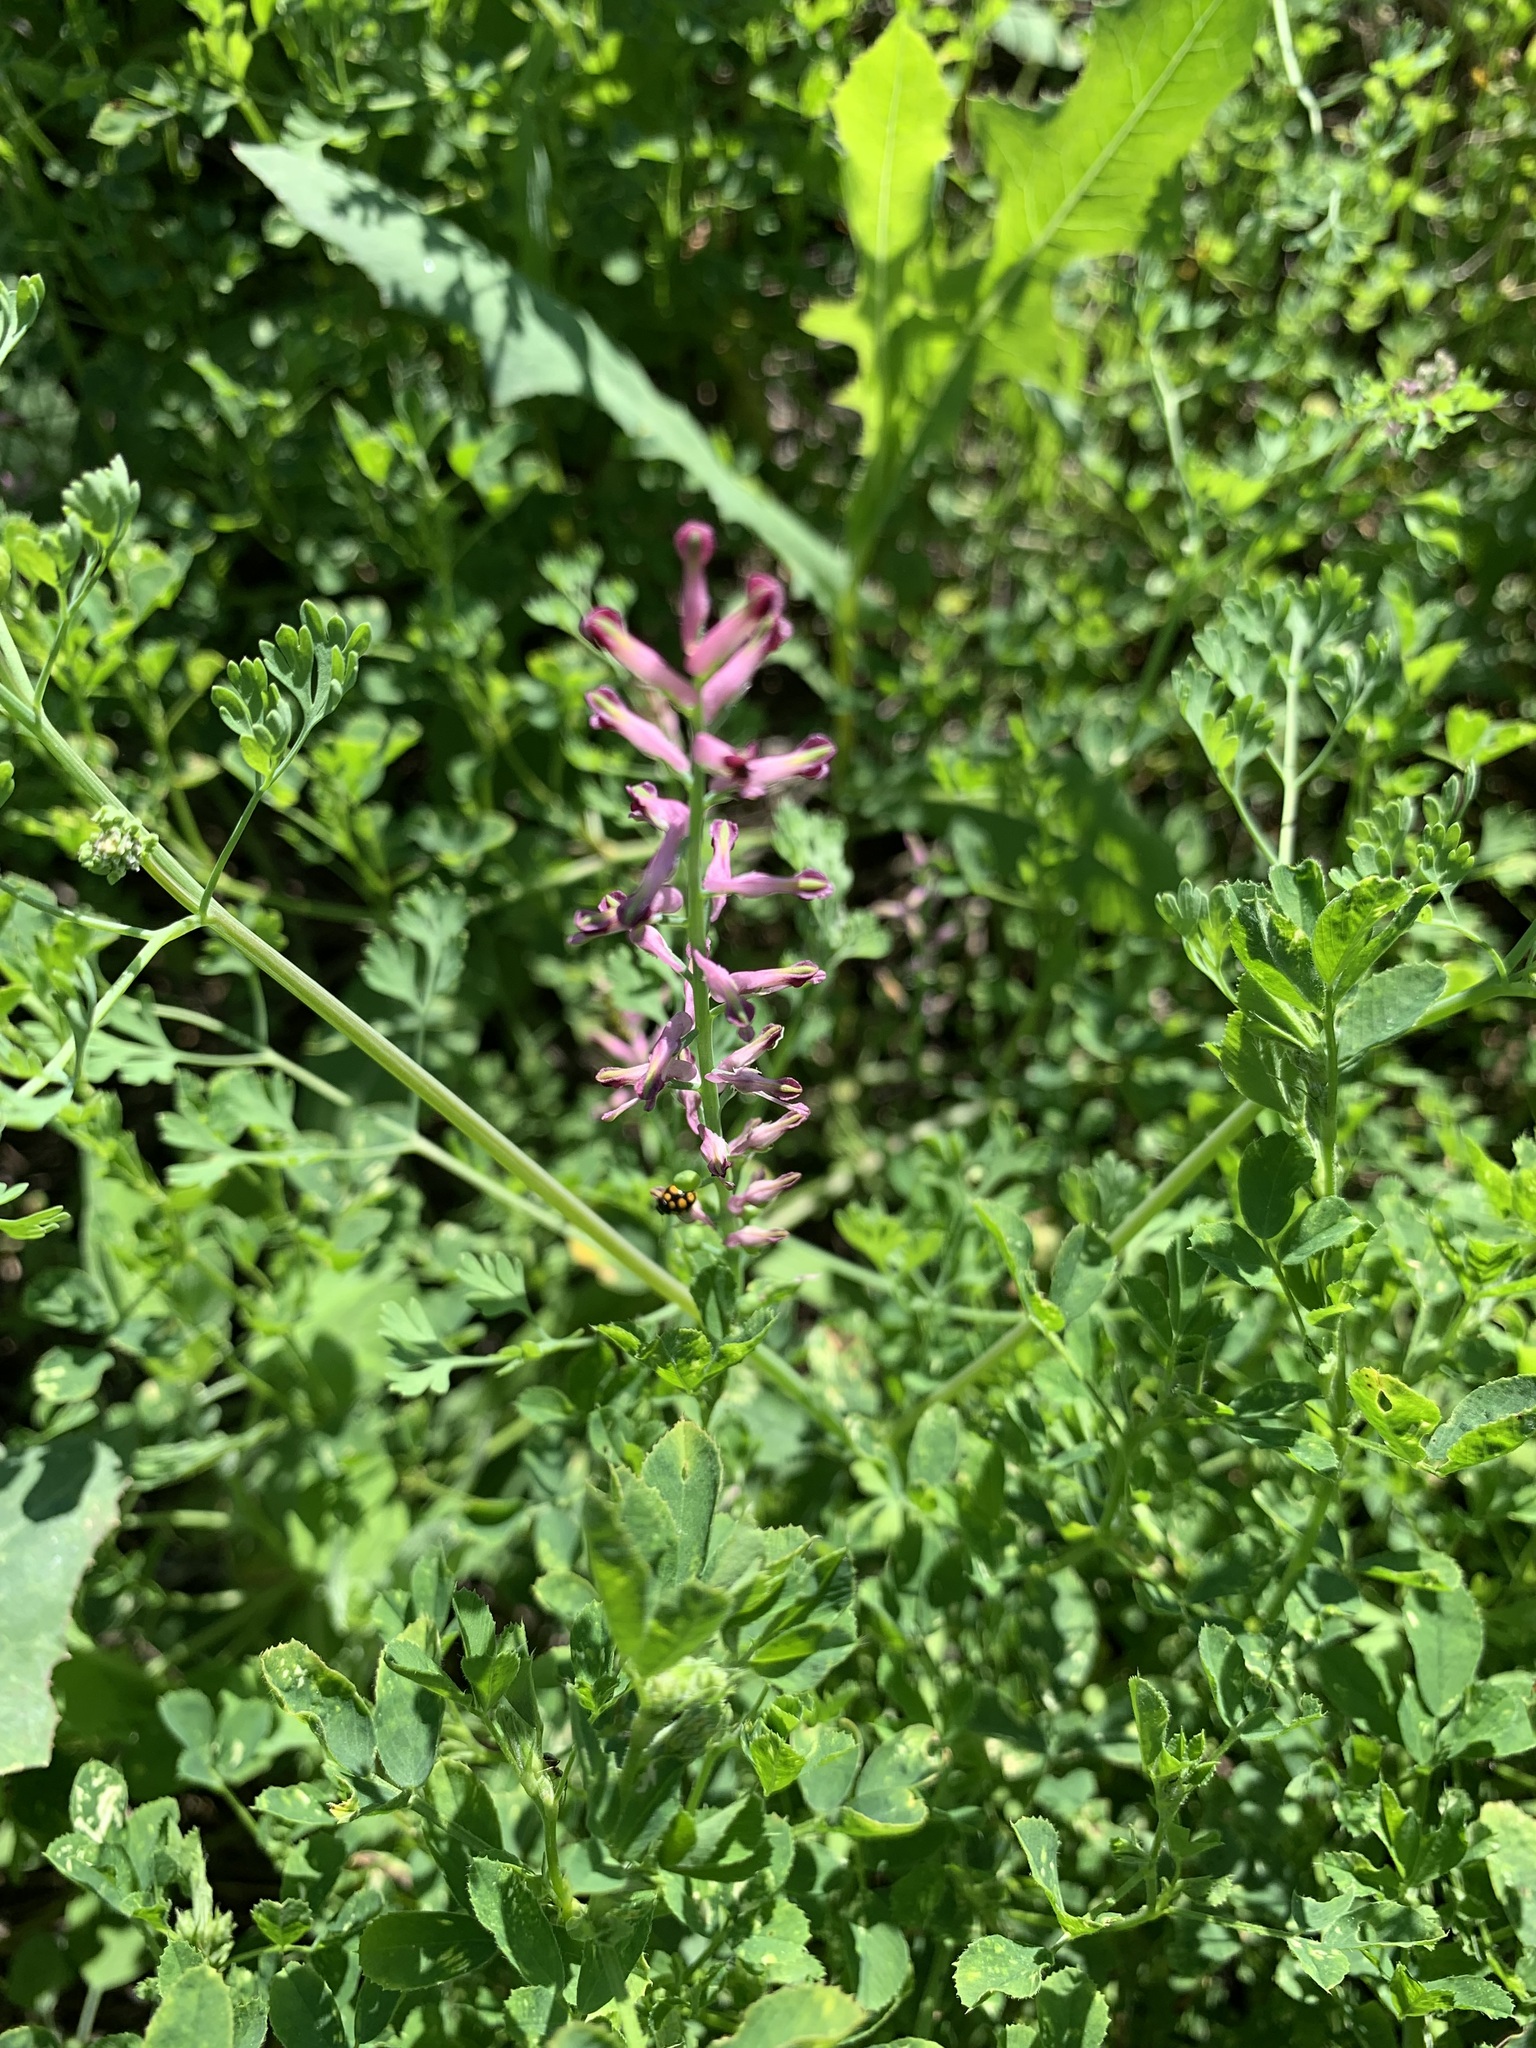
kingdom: Plantae
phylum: Tracheophyta
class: Magnoliopsida
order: Ranunculales
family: Papaveraceae
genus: Fumaria
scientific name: Fumaria officinalis
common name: Common fumitory
